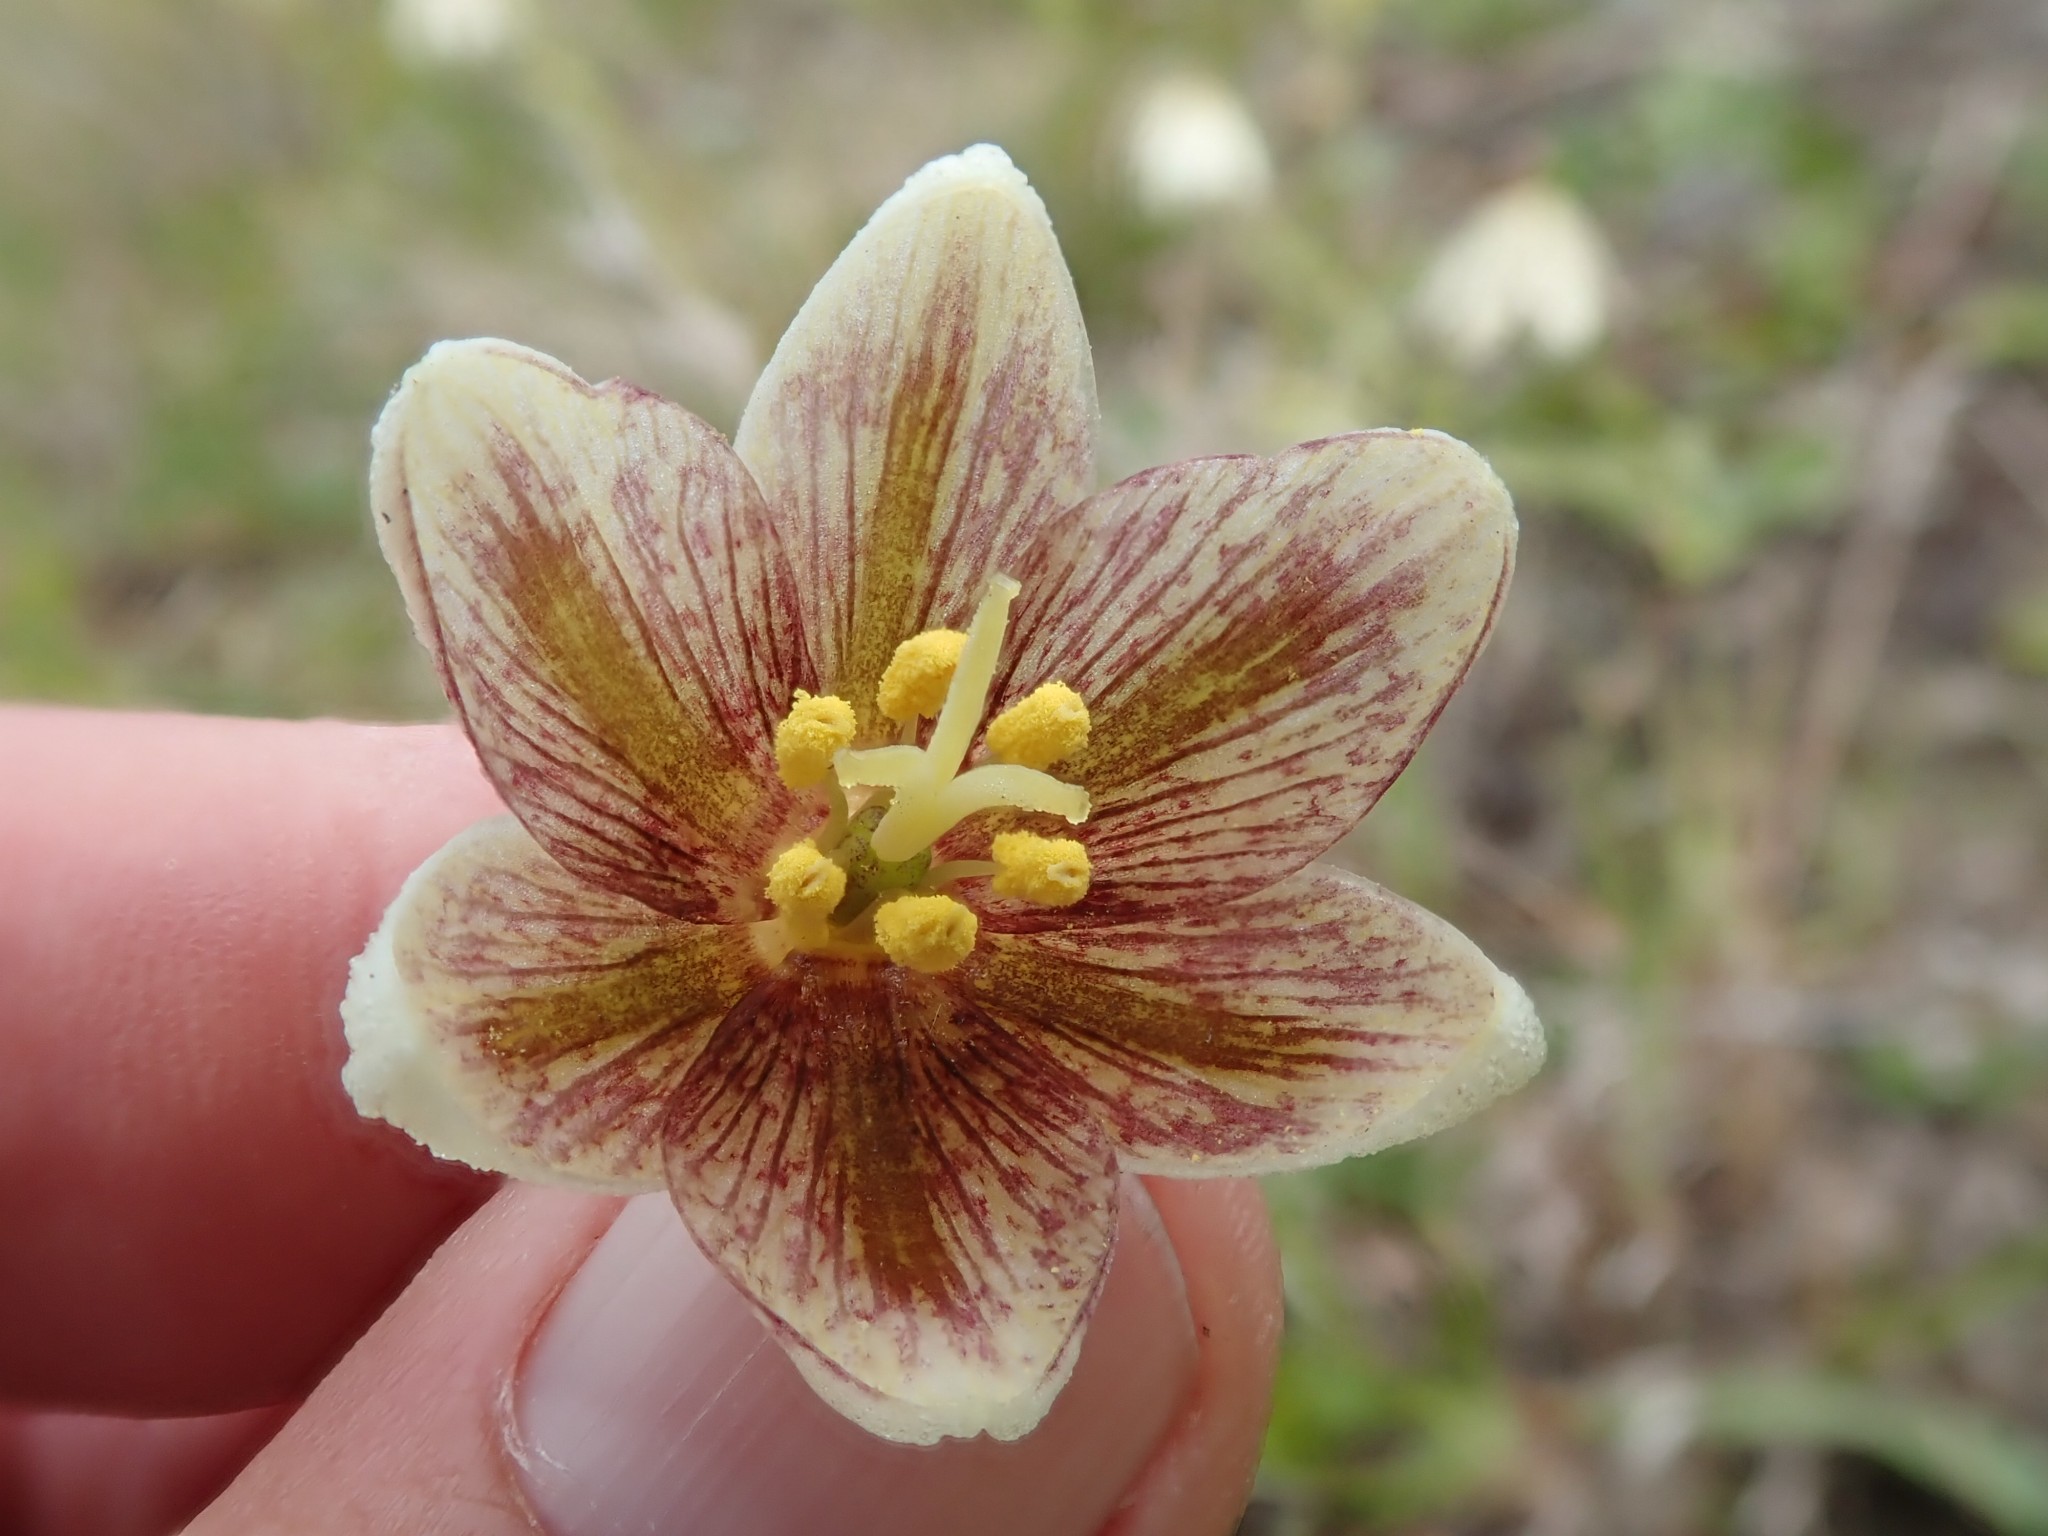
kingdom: Plantae
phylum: Tracheophyta
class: Liliopsida
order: Liliales
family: Liliaceae
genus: Fritillaria
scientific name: Fritillaria liliacea
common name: Fragrant fritillary
